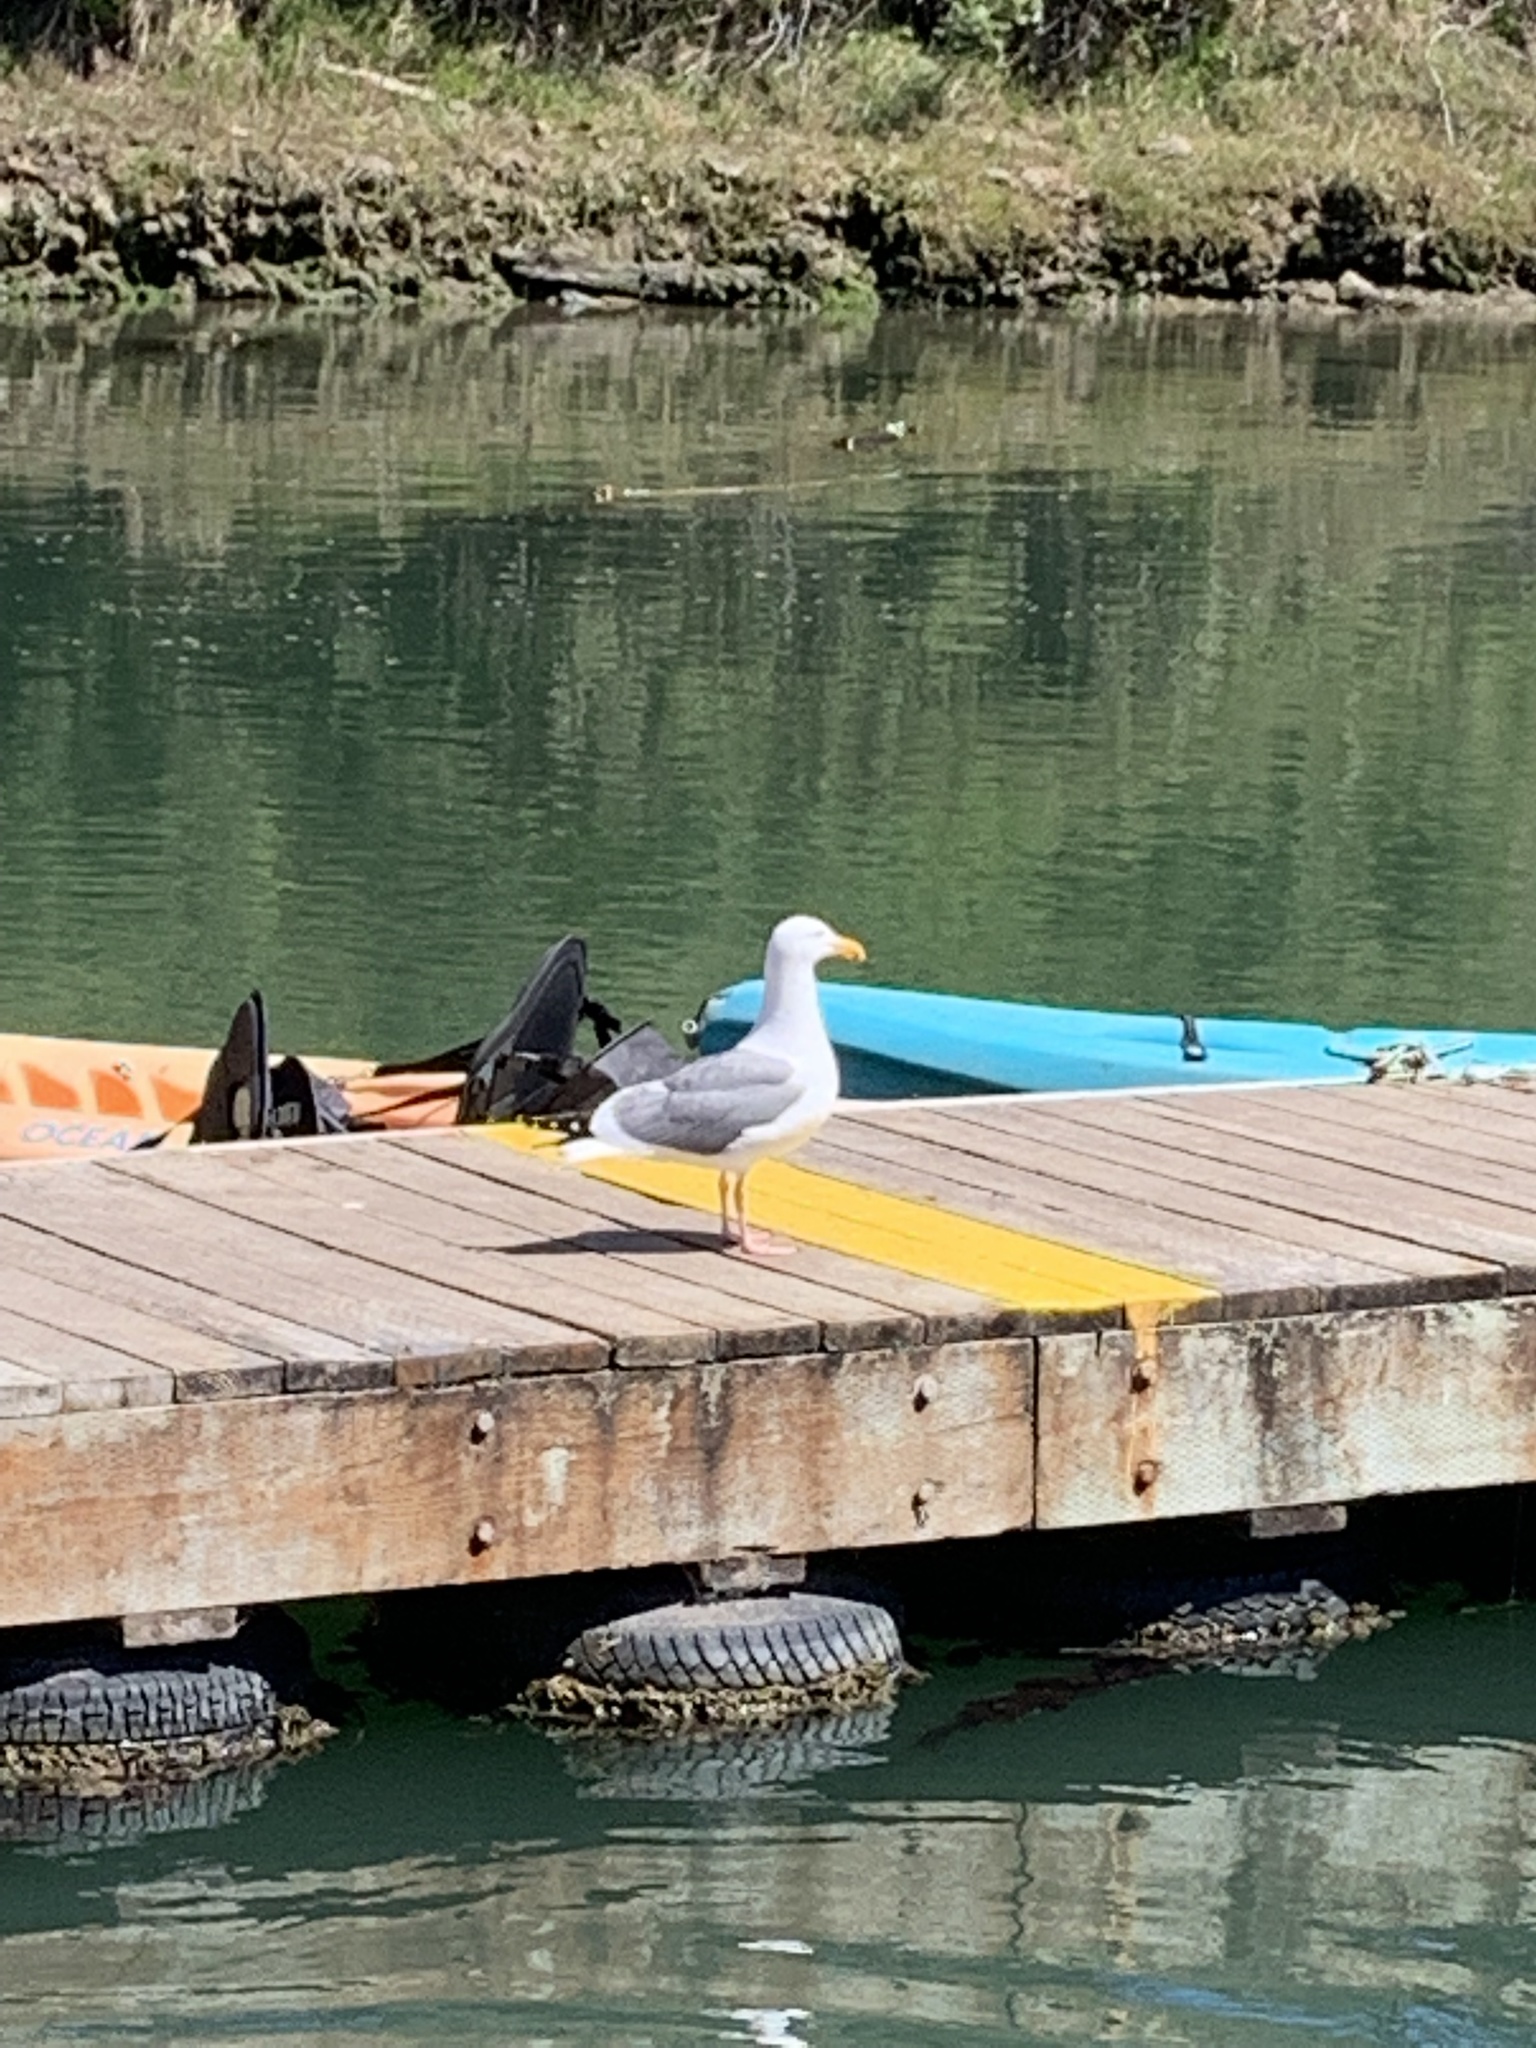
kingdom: Animalia
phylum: Chordata
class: Aves
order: Charadriiformes
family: Laridae
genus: Larus
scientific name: Larus occidentalis
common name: Western gull
